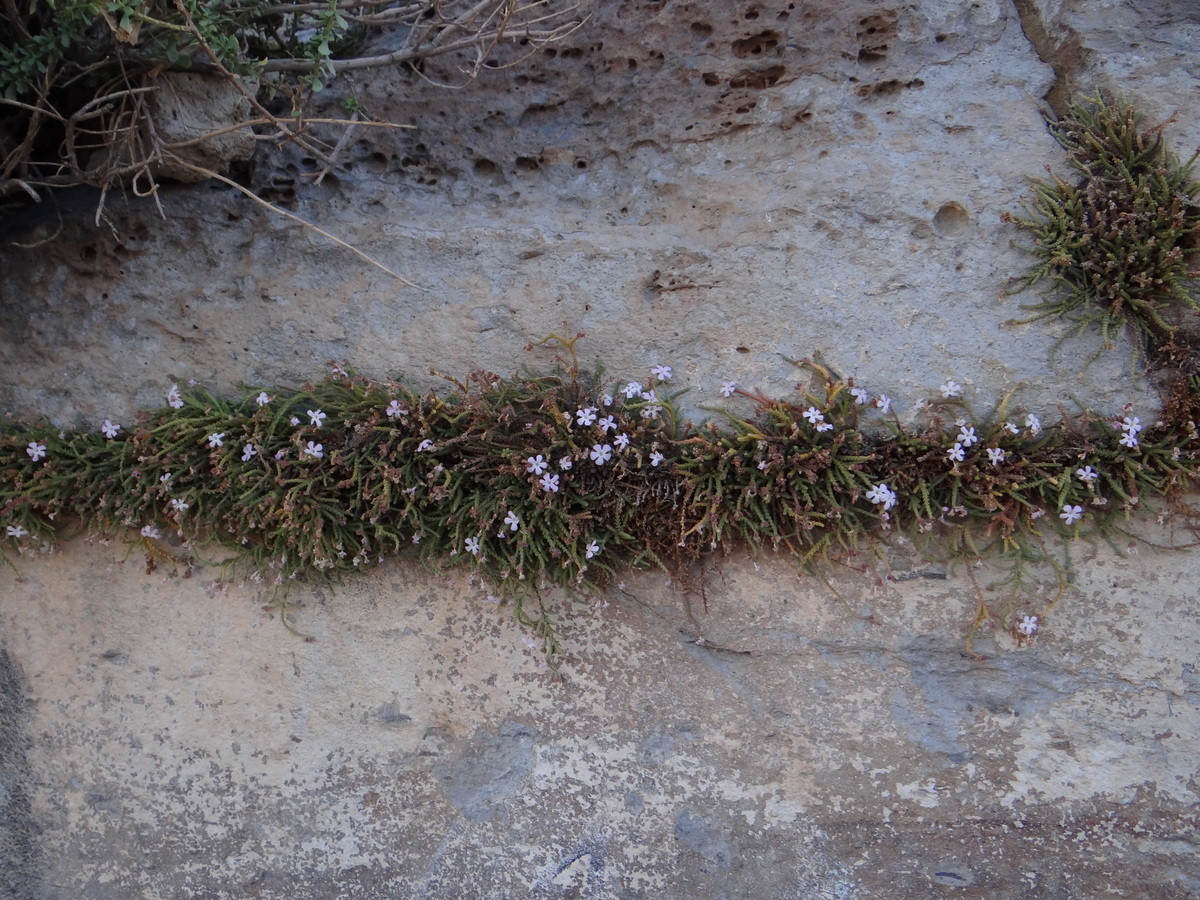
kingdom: Plantae
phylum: Tracheophyta
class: Magnoliopsida
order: Lamiales
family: Plantaginaceae
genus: Ourisia
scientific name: Ourisia microphylla
